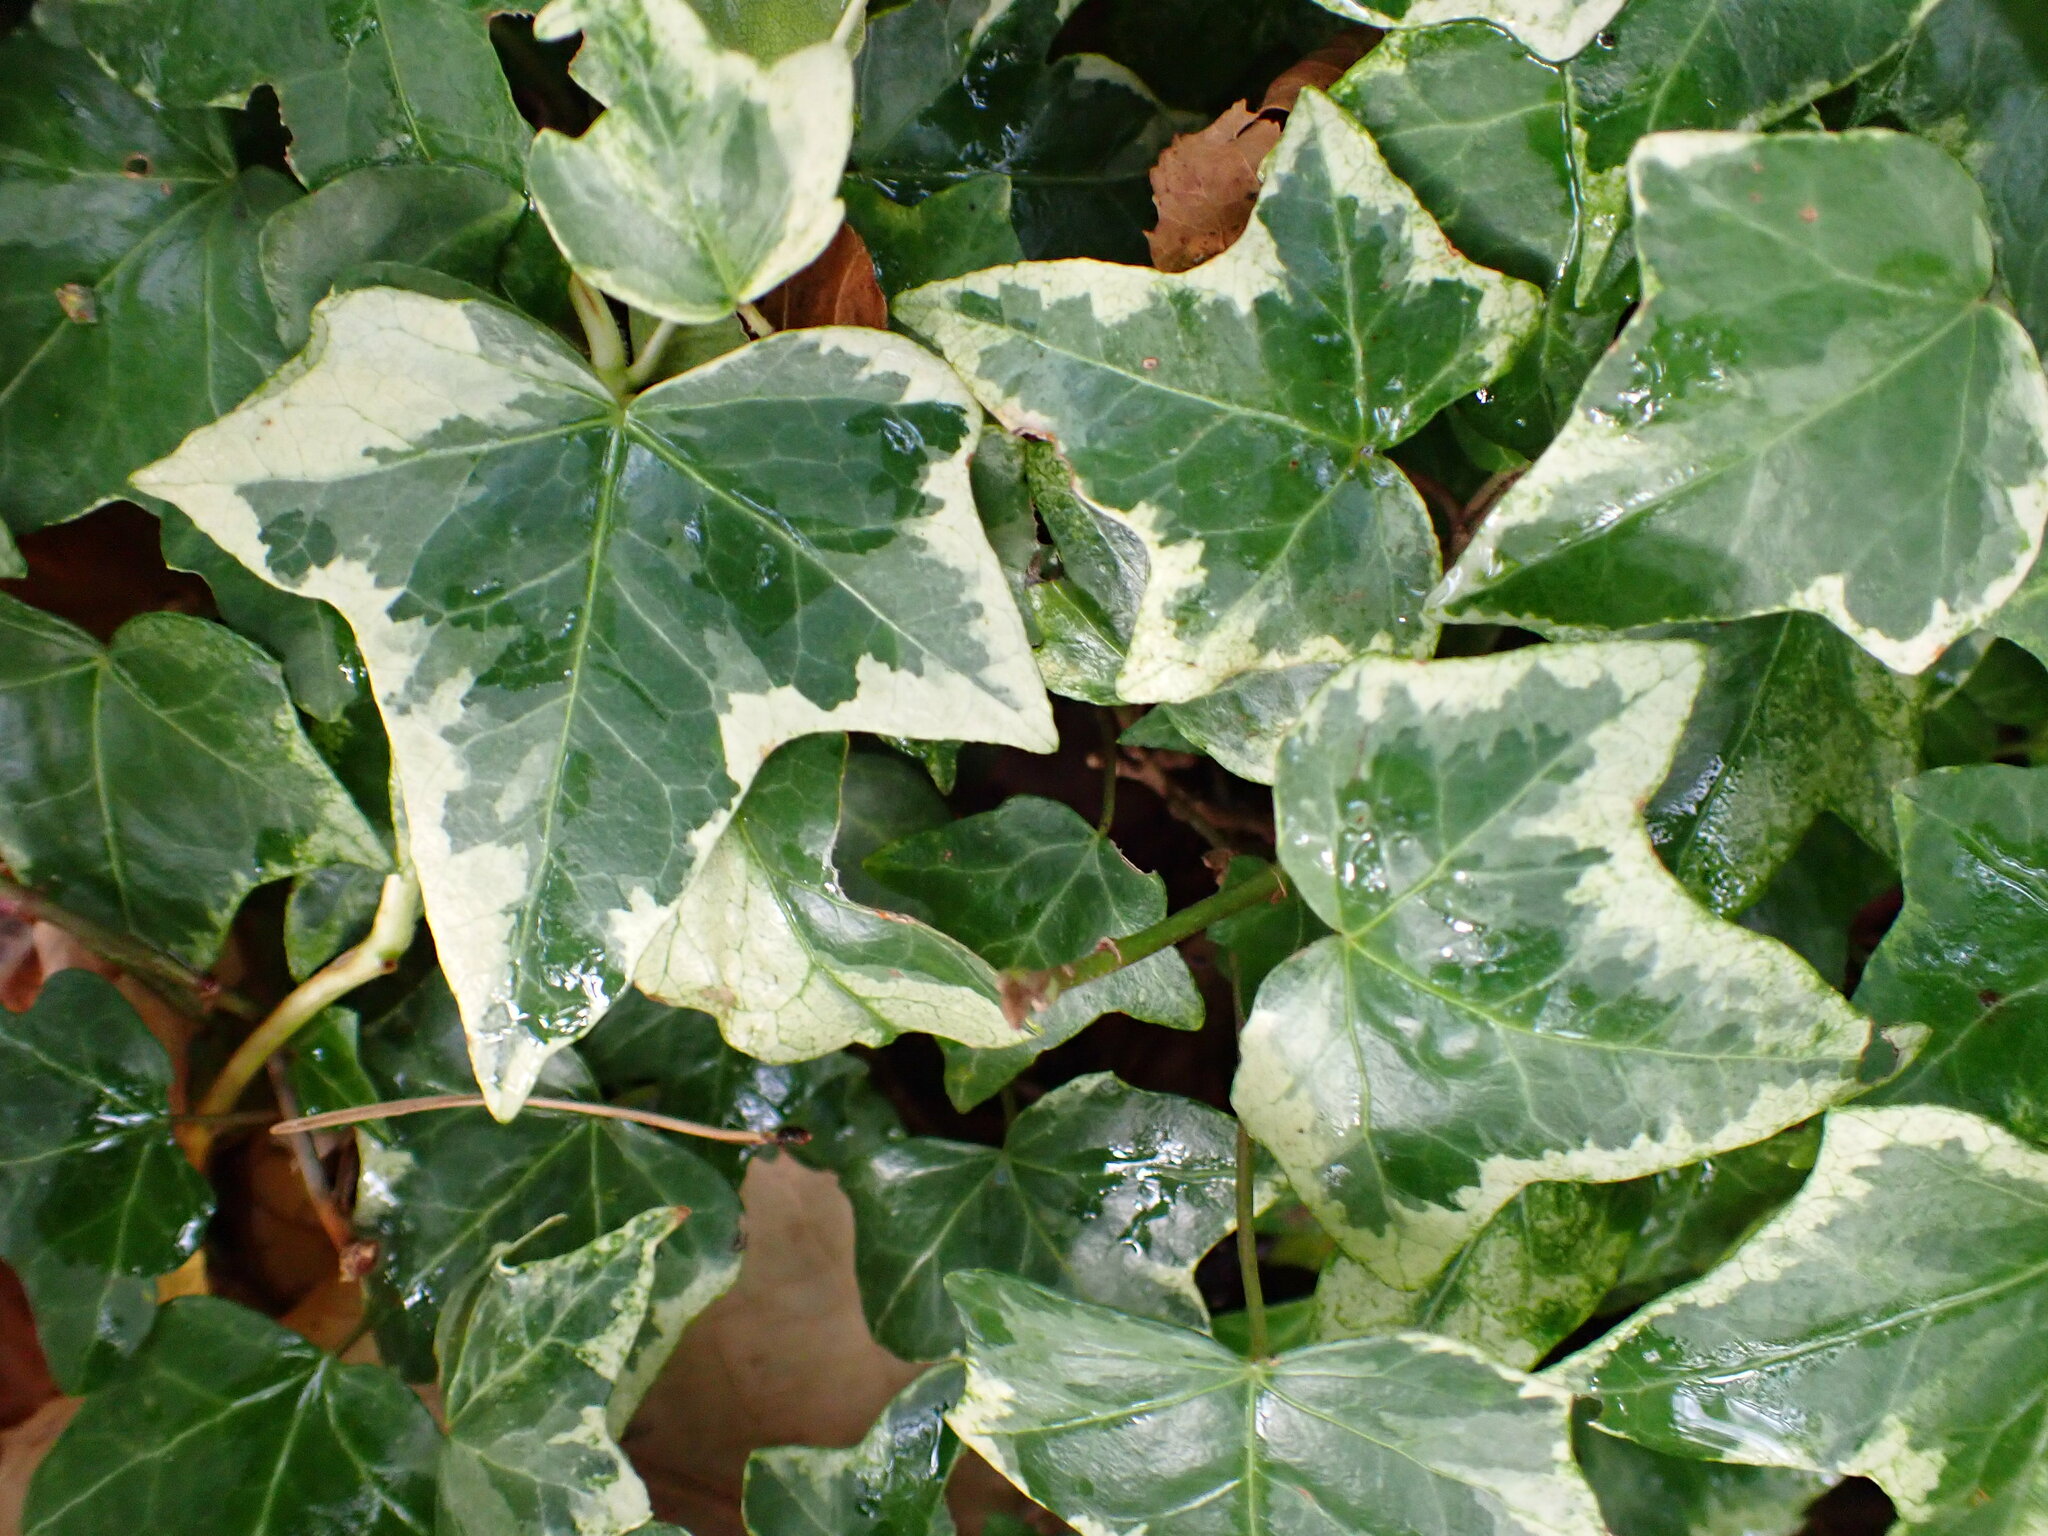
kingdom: Plantae
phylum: Tracheophyta
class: Magnoliopsida
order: Apiales
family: Araliaceae
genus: Hedera
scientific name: Hedera helix
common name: Ivy
